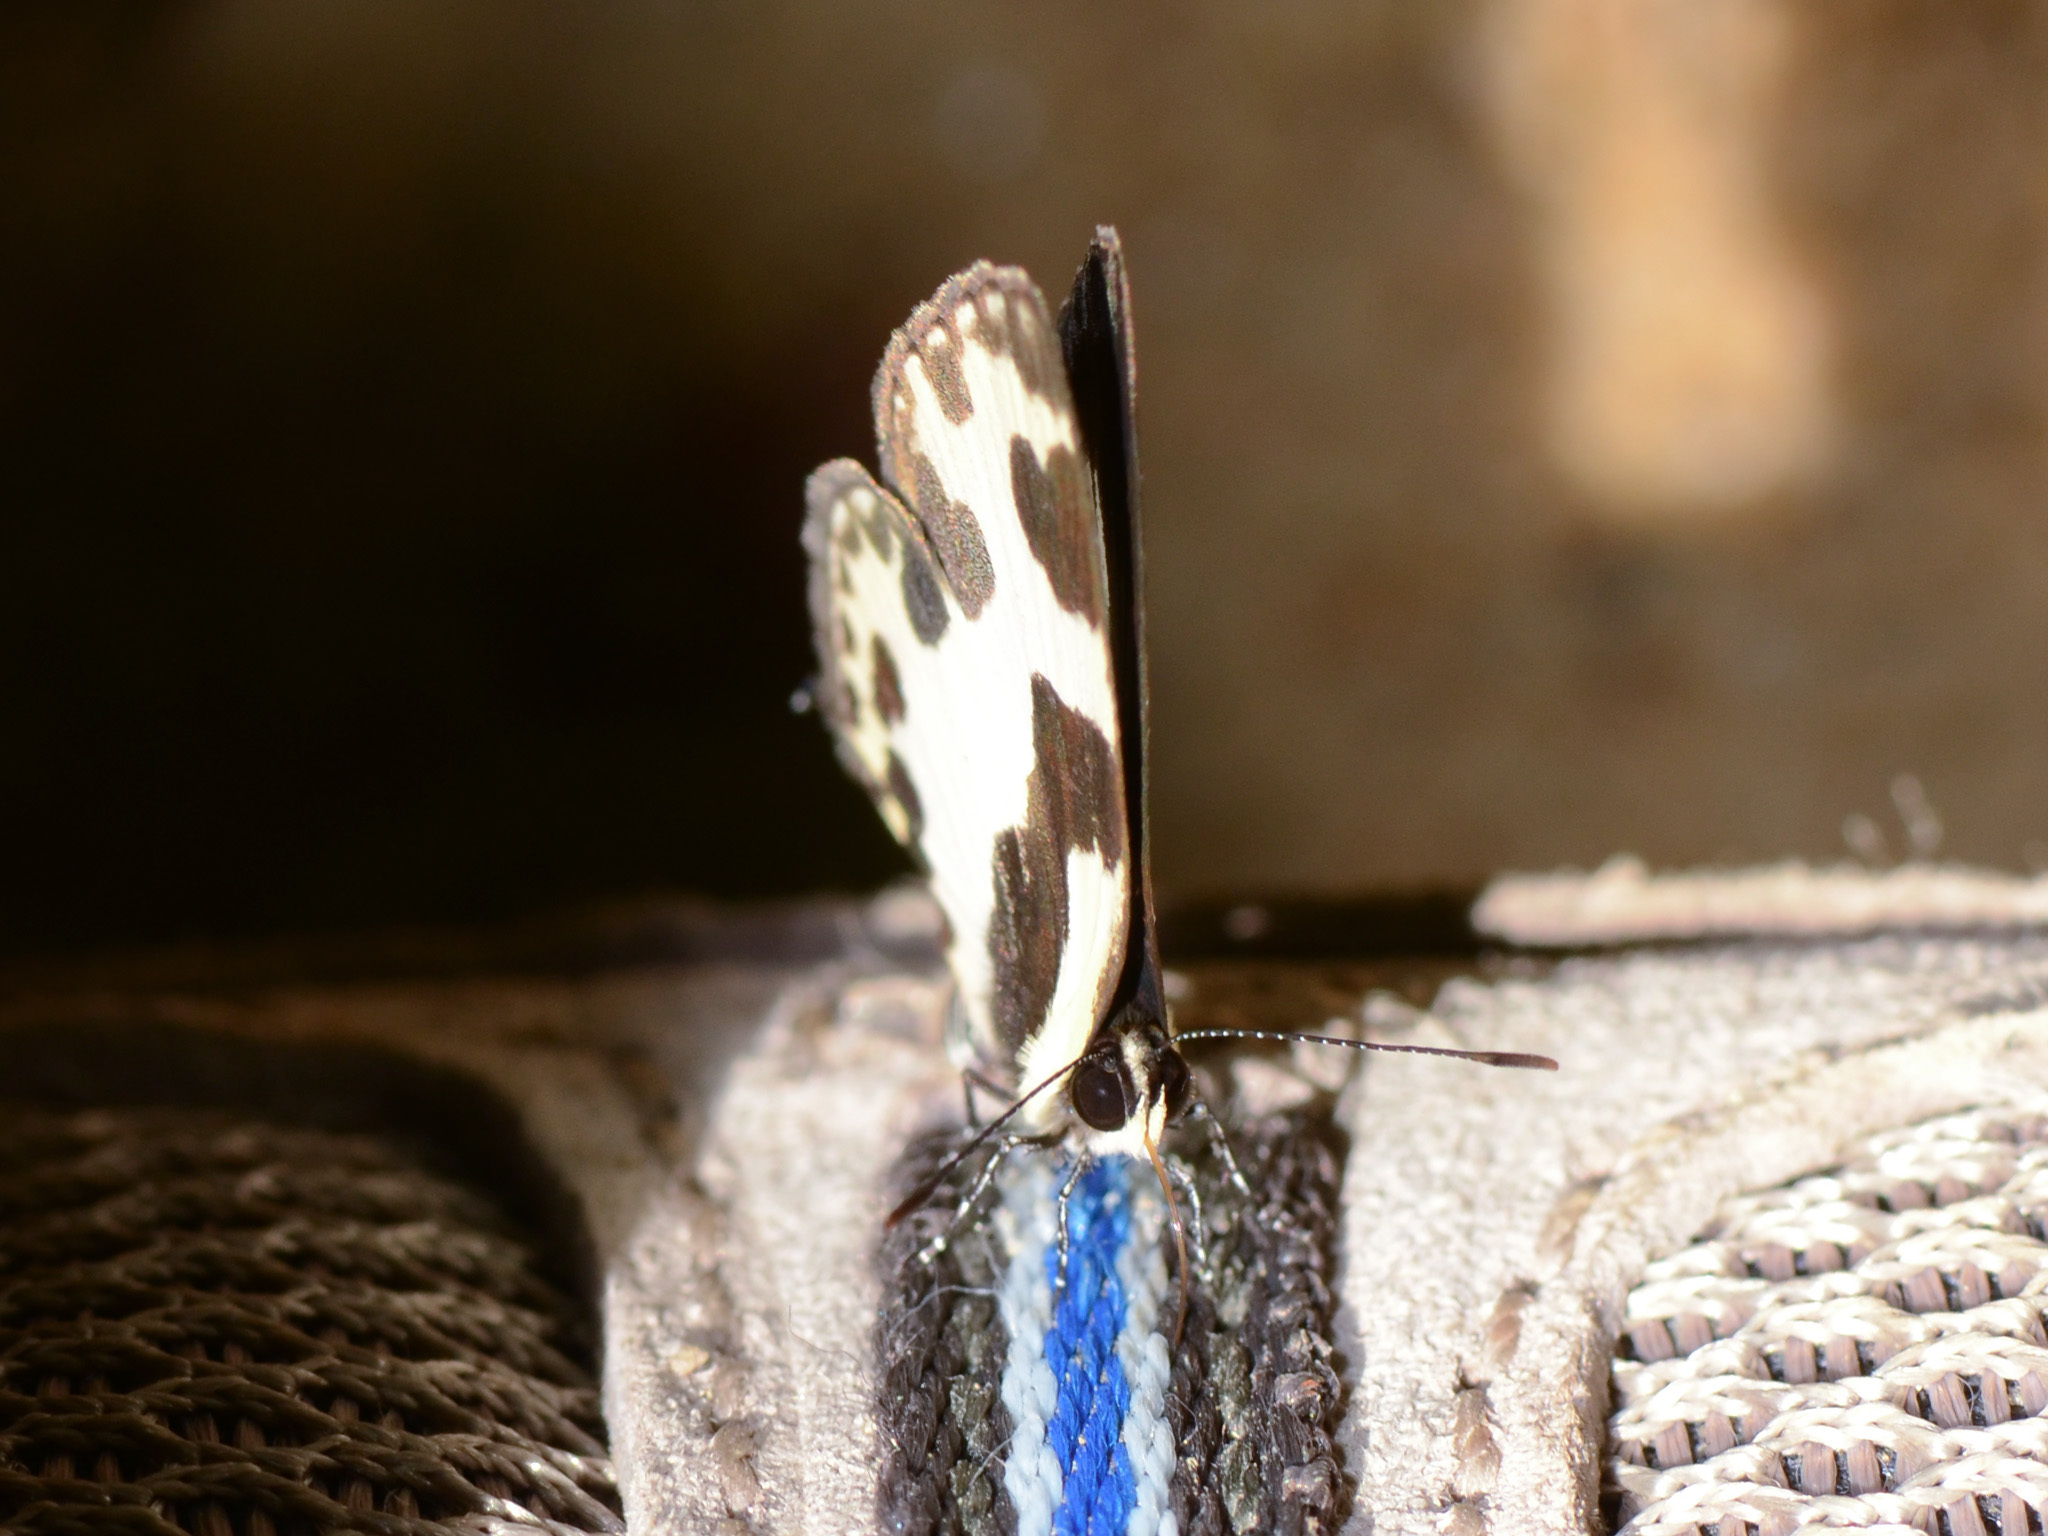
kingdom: Animalia
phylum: Arthropoda
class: Insecta
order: Lepidoptera
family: Lycaenidae
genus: Caleta
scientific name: Caleta elna
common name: Elbowed pierrot
